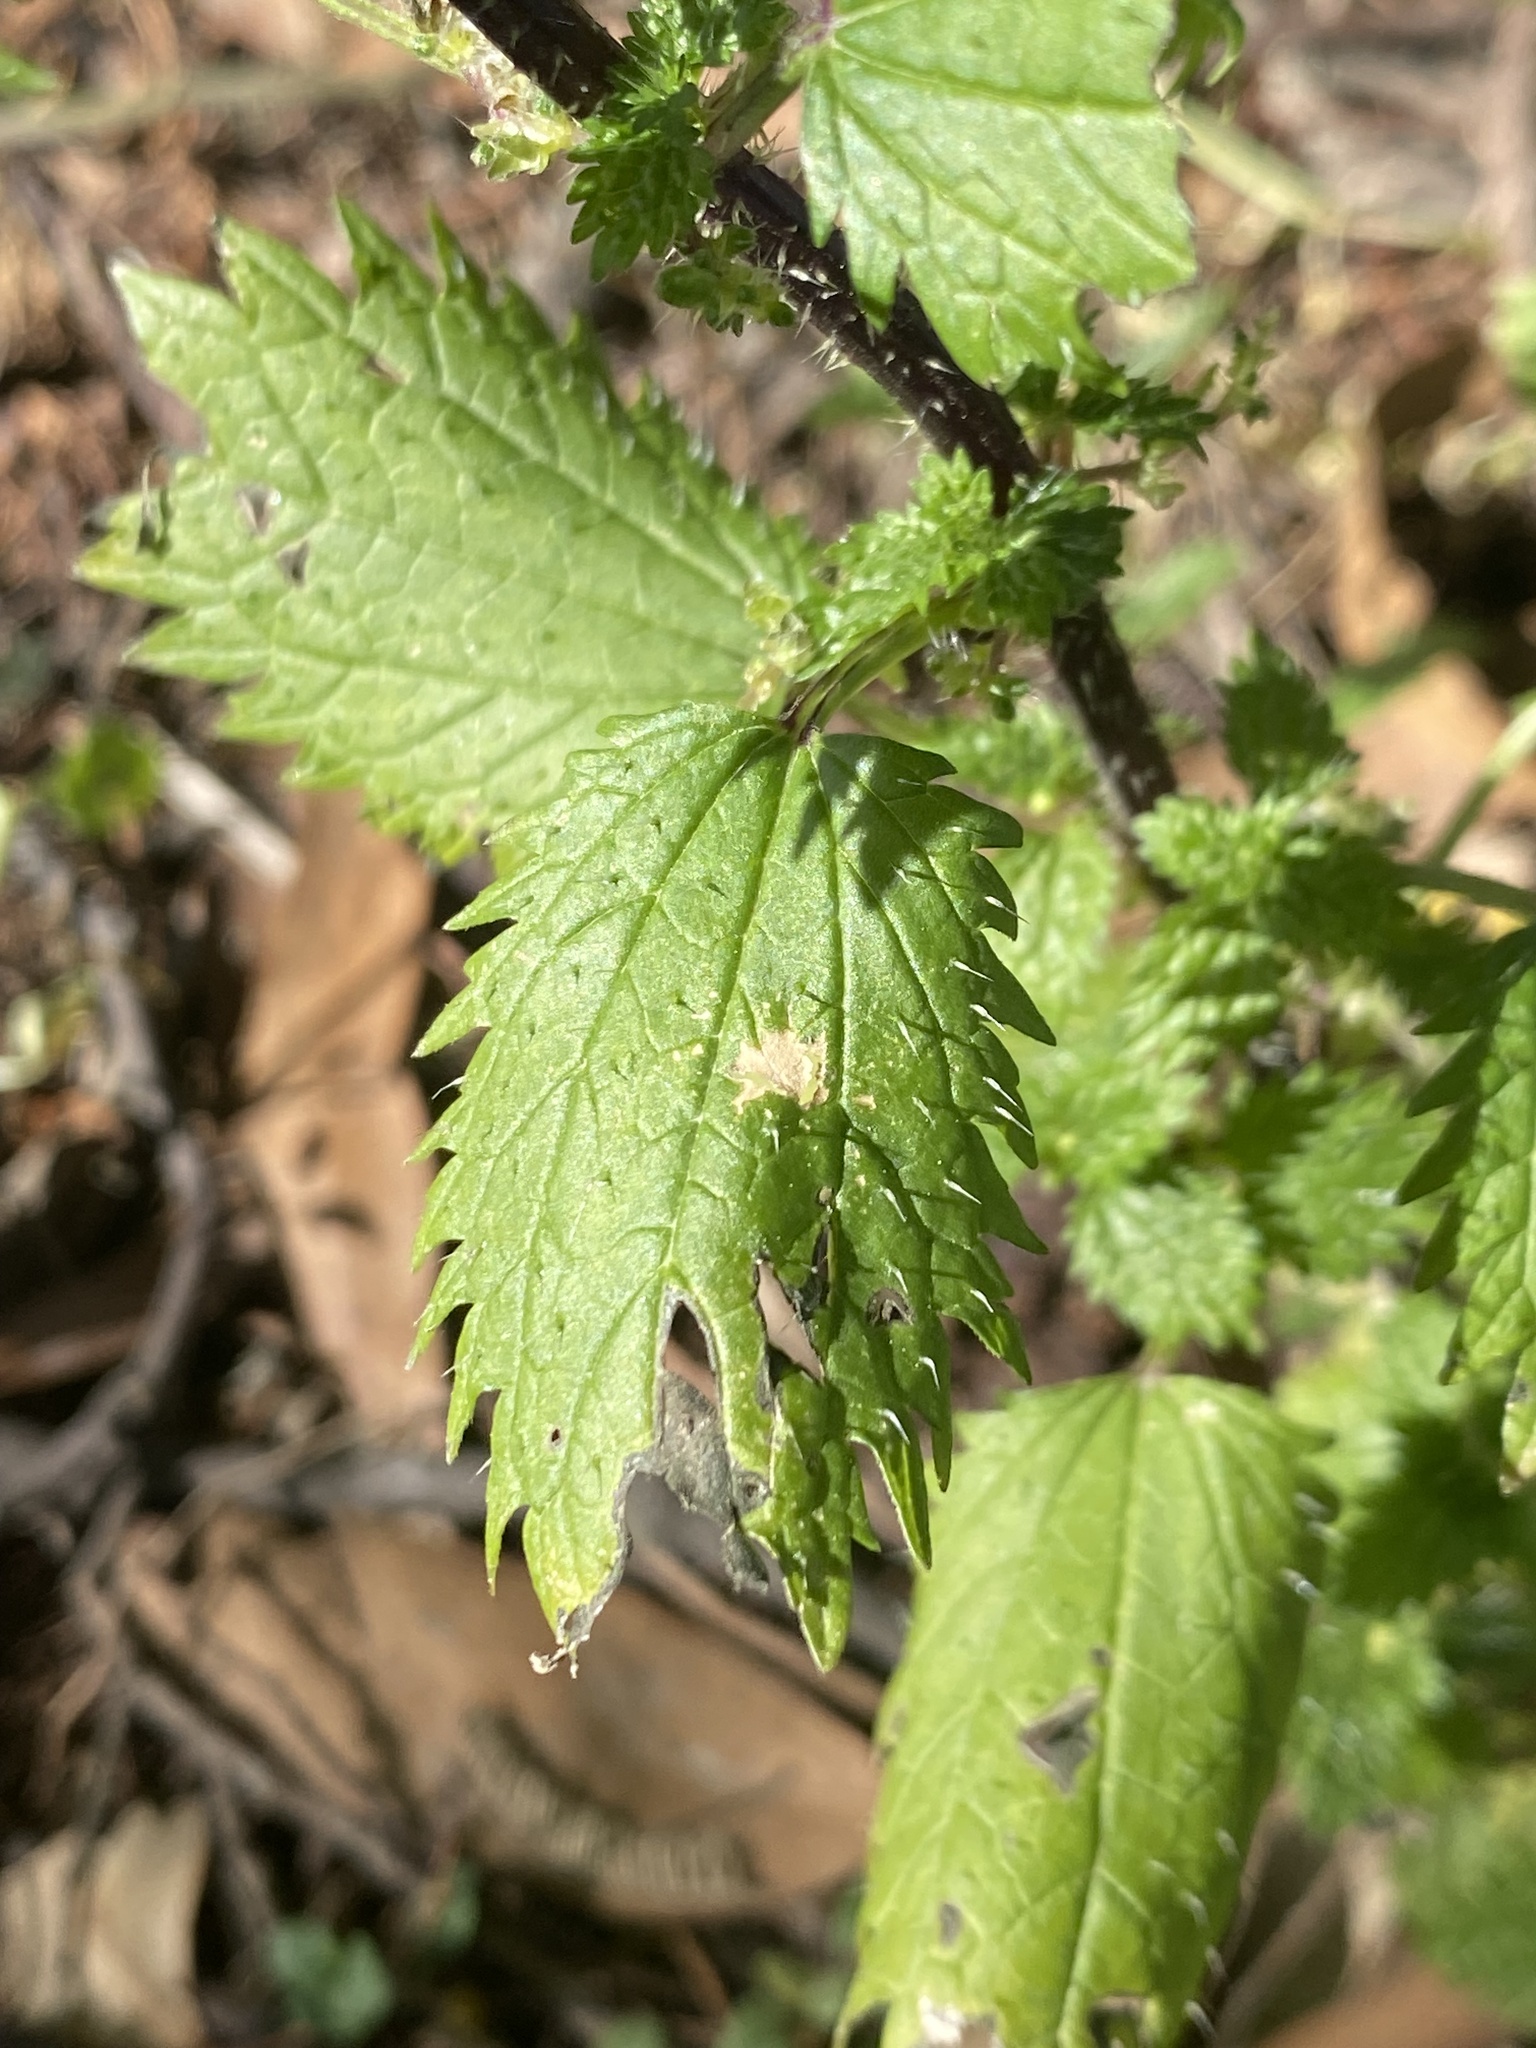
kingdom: Plantae
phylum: Tracheophyta
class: Magnoliopsida
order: Rosales
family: Urticaceae
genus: Urtica
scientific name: Urtica urens
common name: Dwarf nettle
